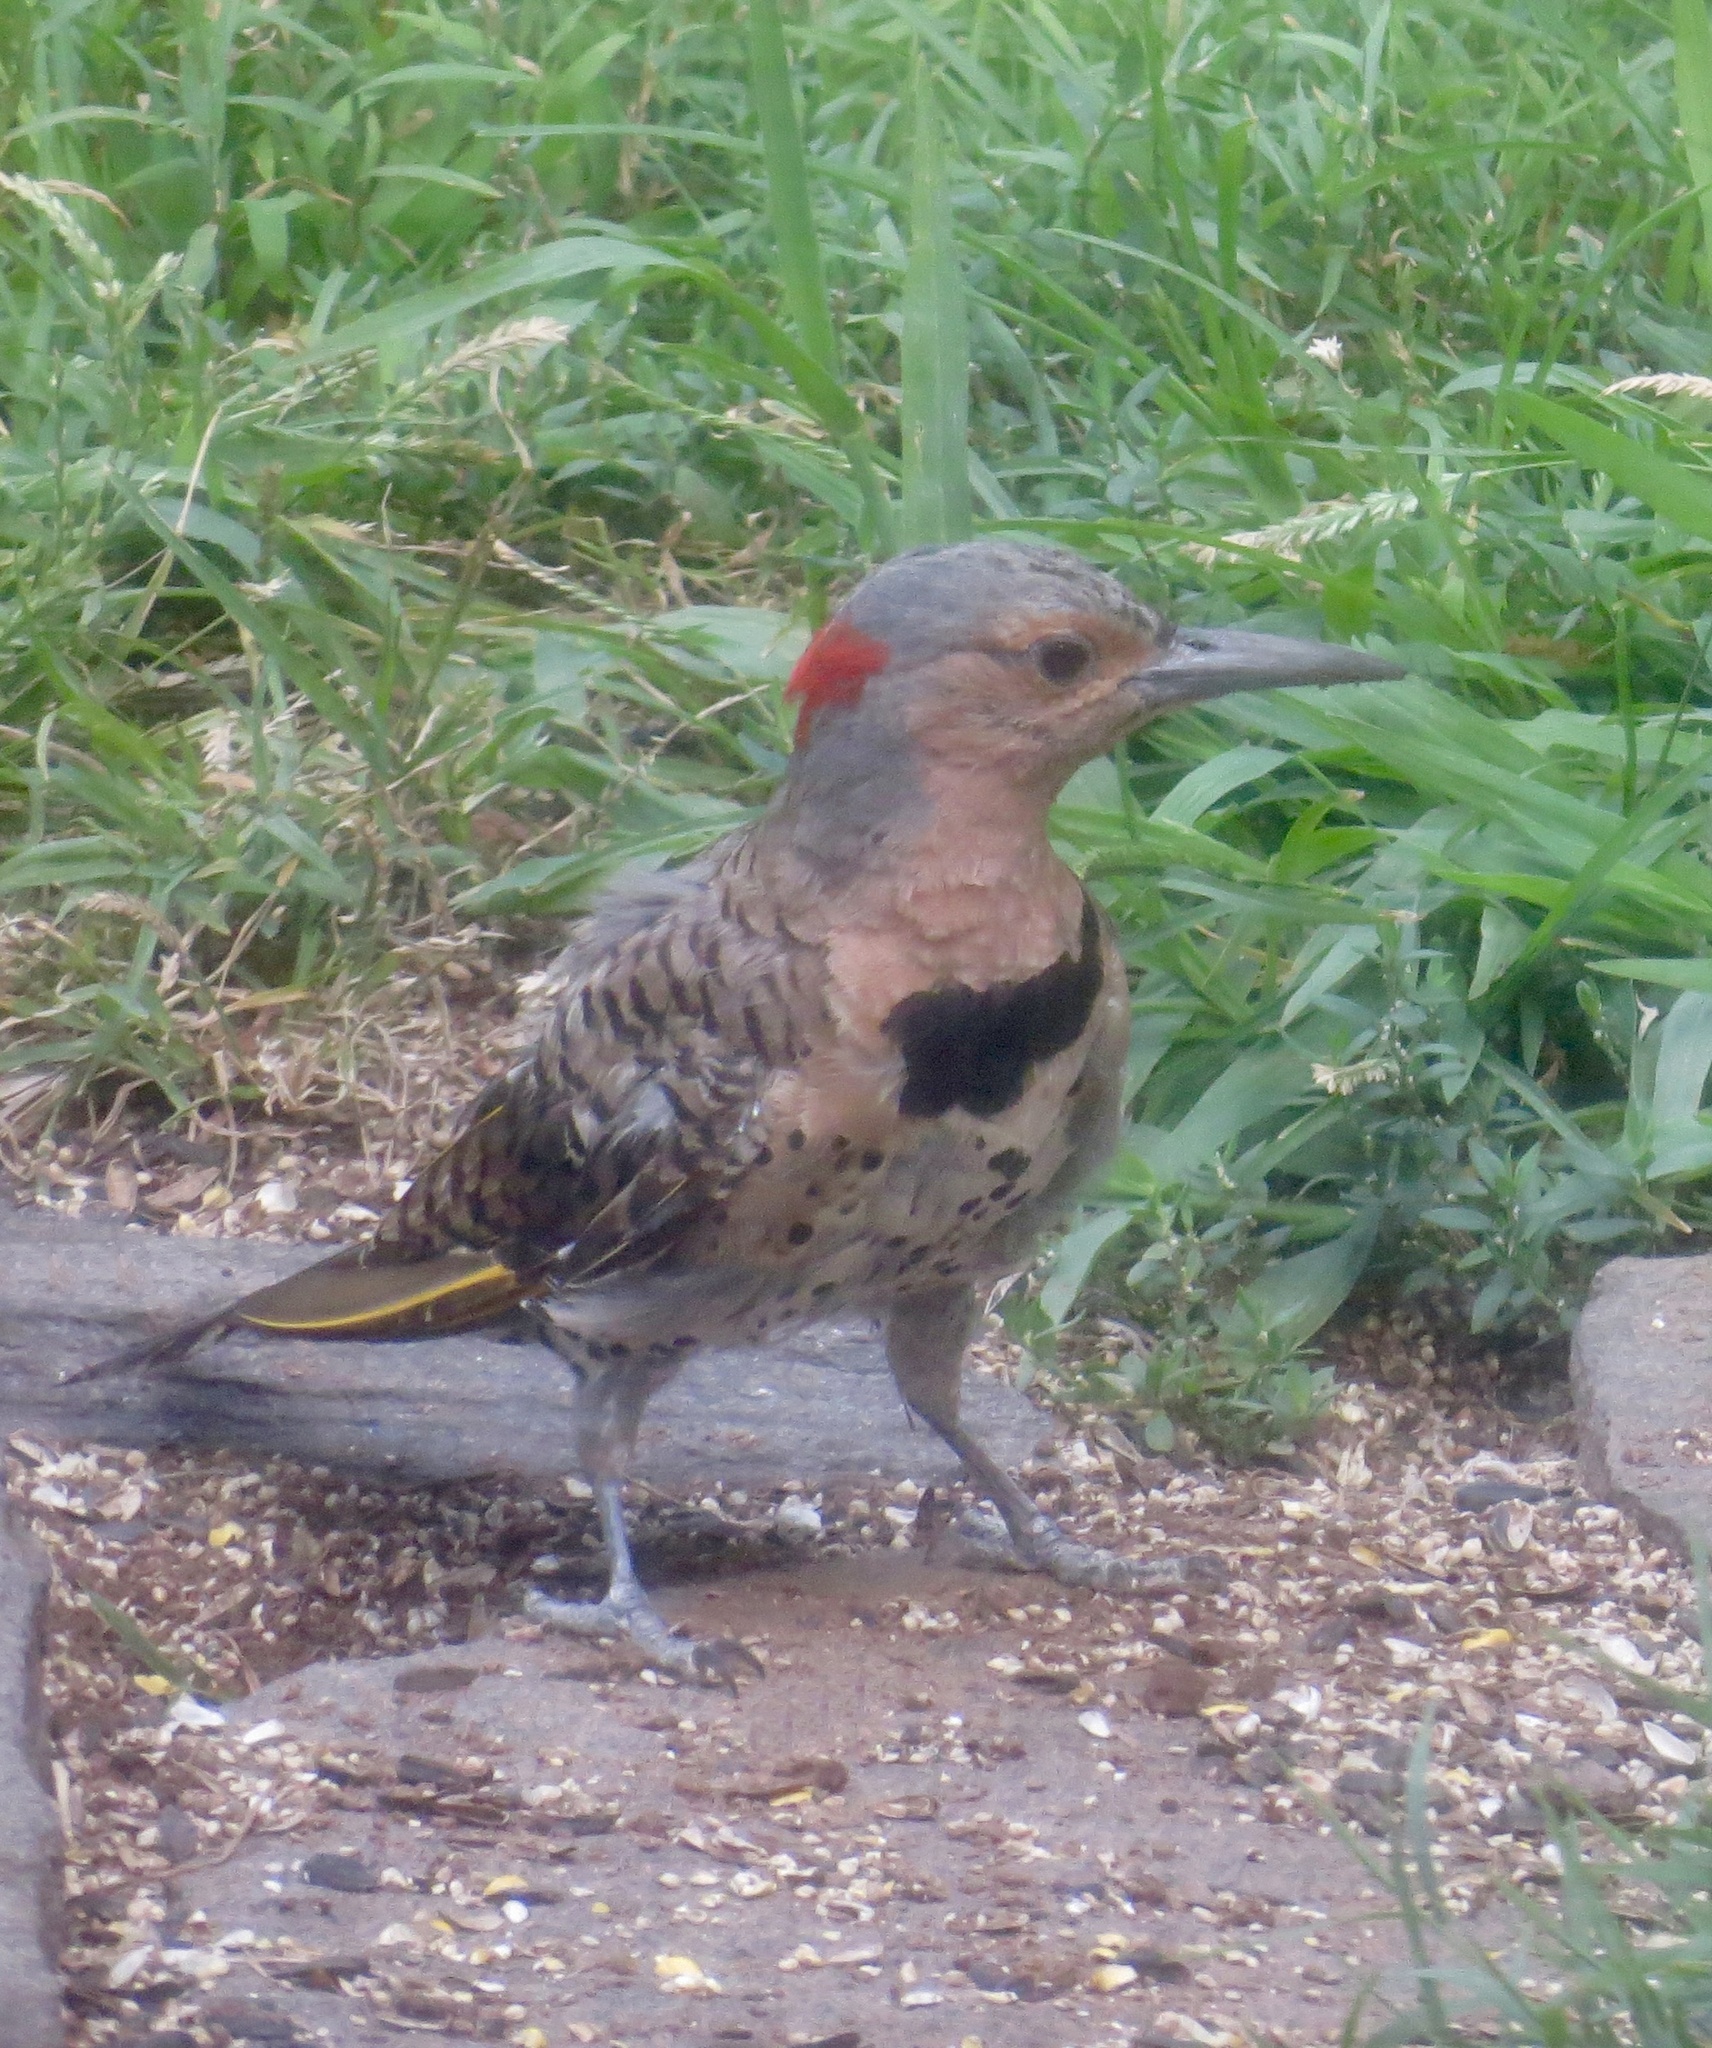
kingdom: Animalia
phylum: Chordata
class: Aves
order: Piciformes
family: Picidae
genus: Colaptes
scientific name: Colaptes auratus
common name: Northern flicker
